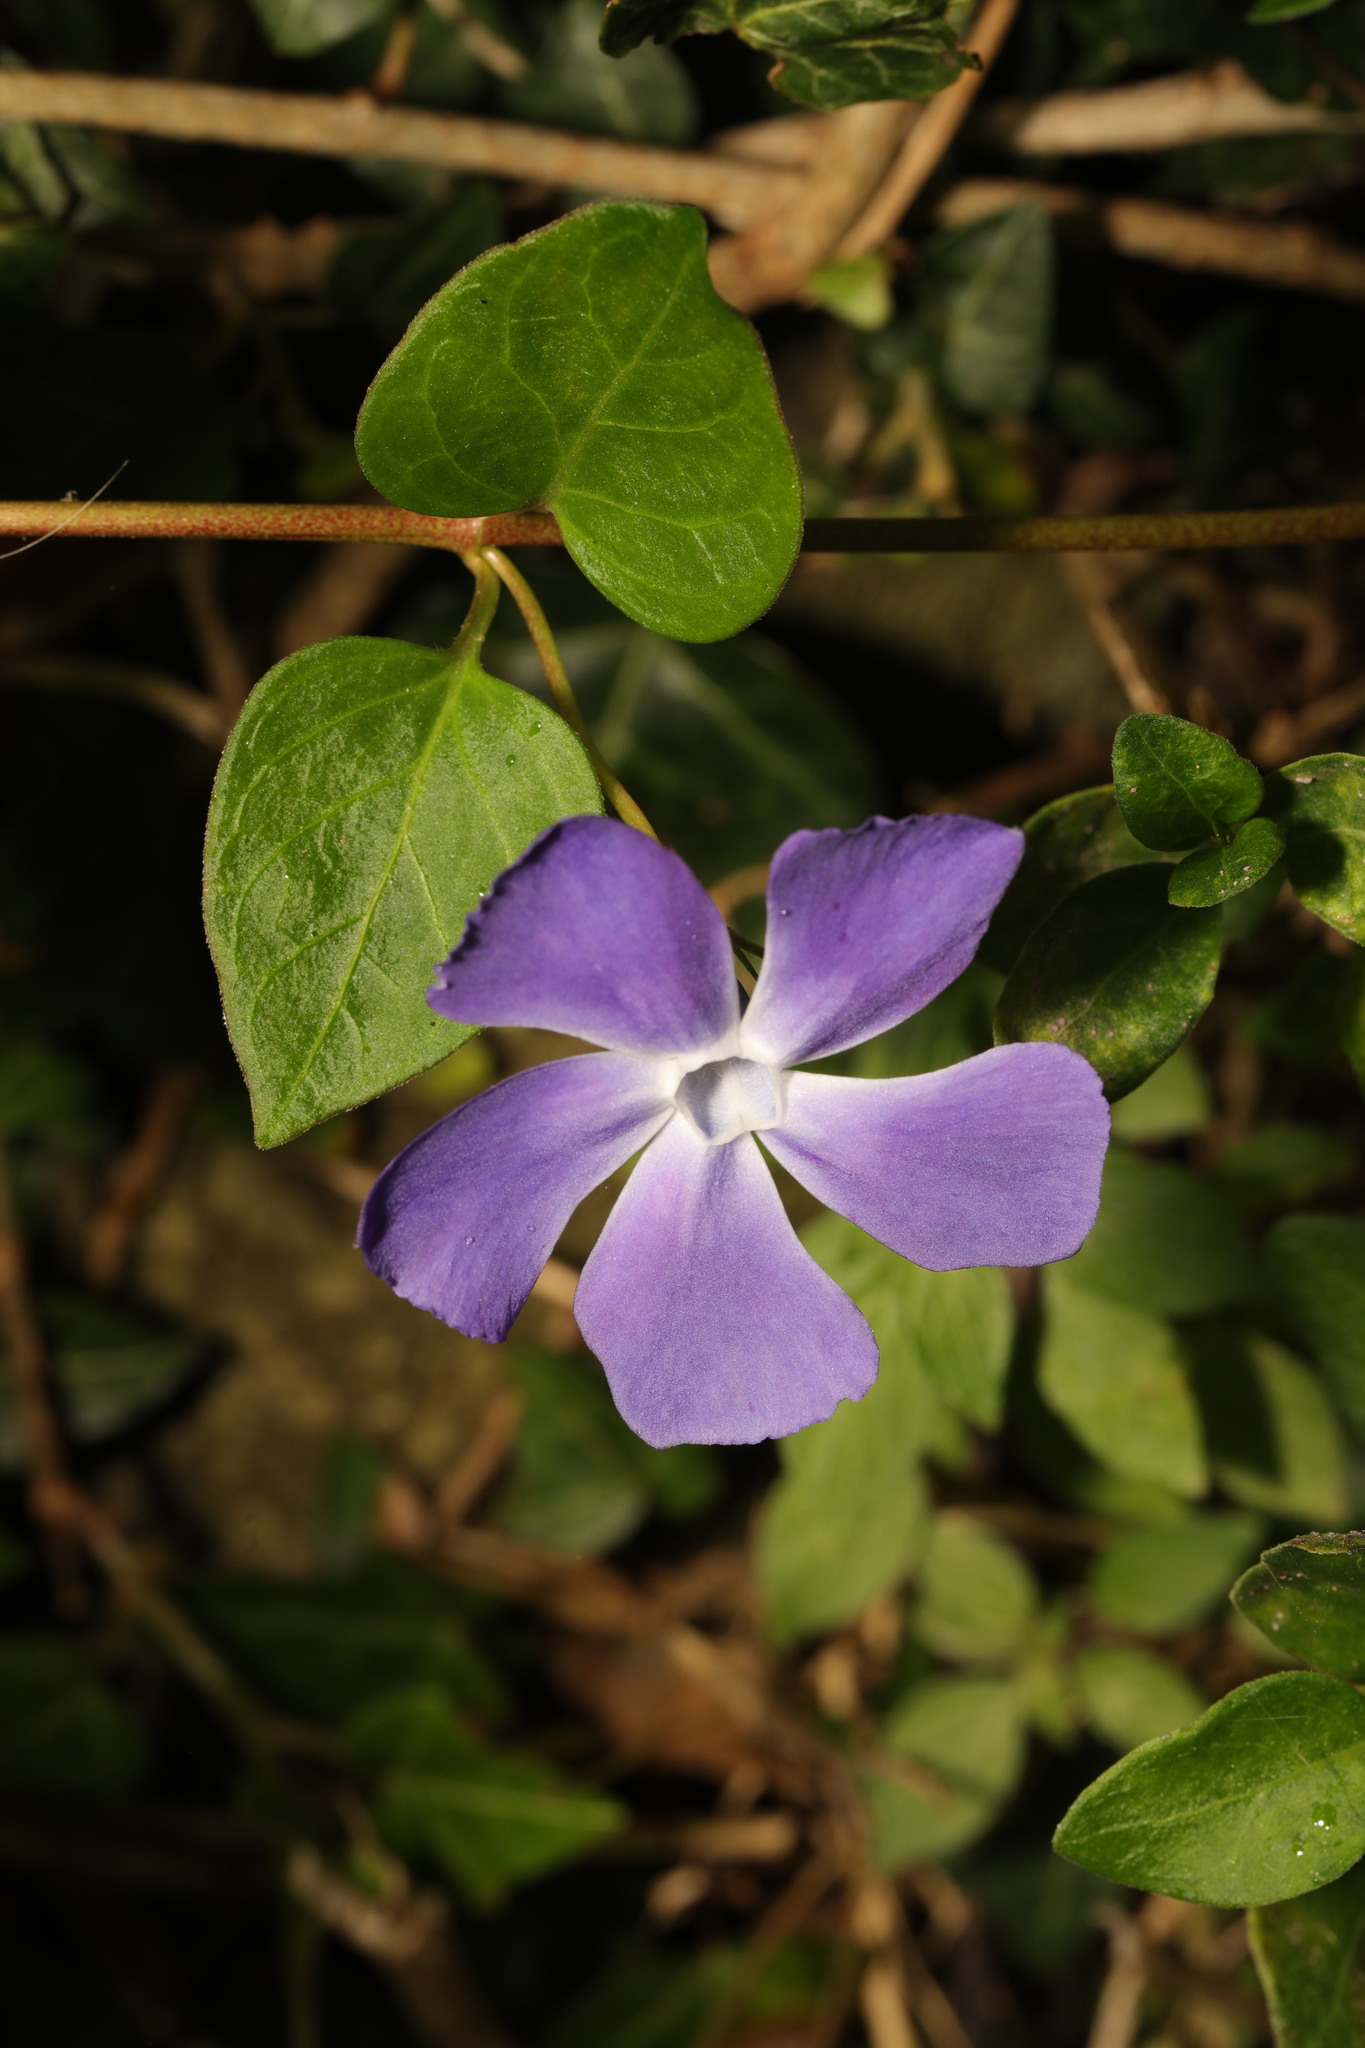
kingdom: Plantae
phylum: Tracheophyta
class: Magnoliopsida
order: Gentianales
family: Apocynaceae
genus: Vinca
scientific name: Vinca major
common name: Greater periwinkle
